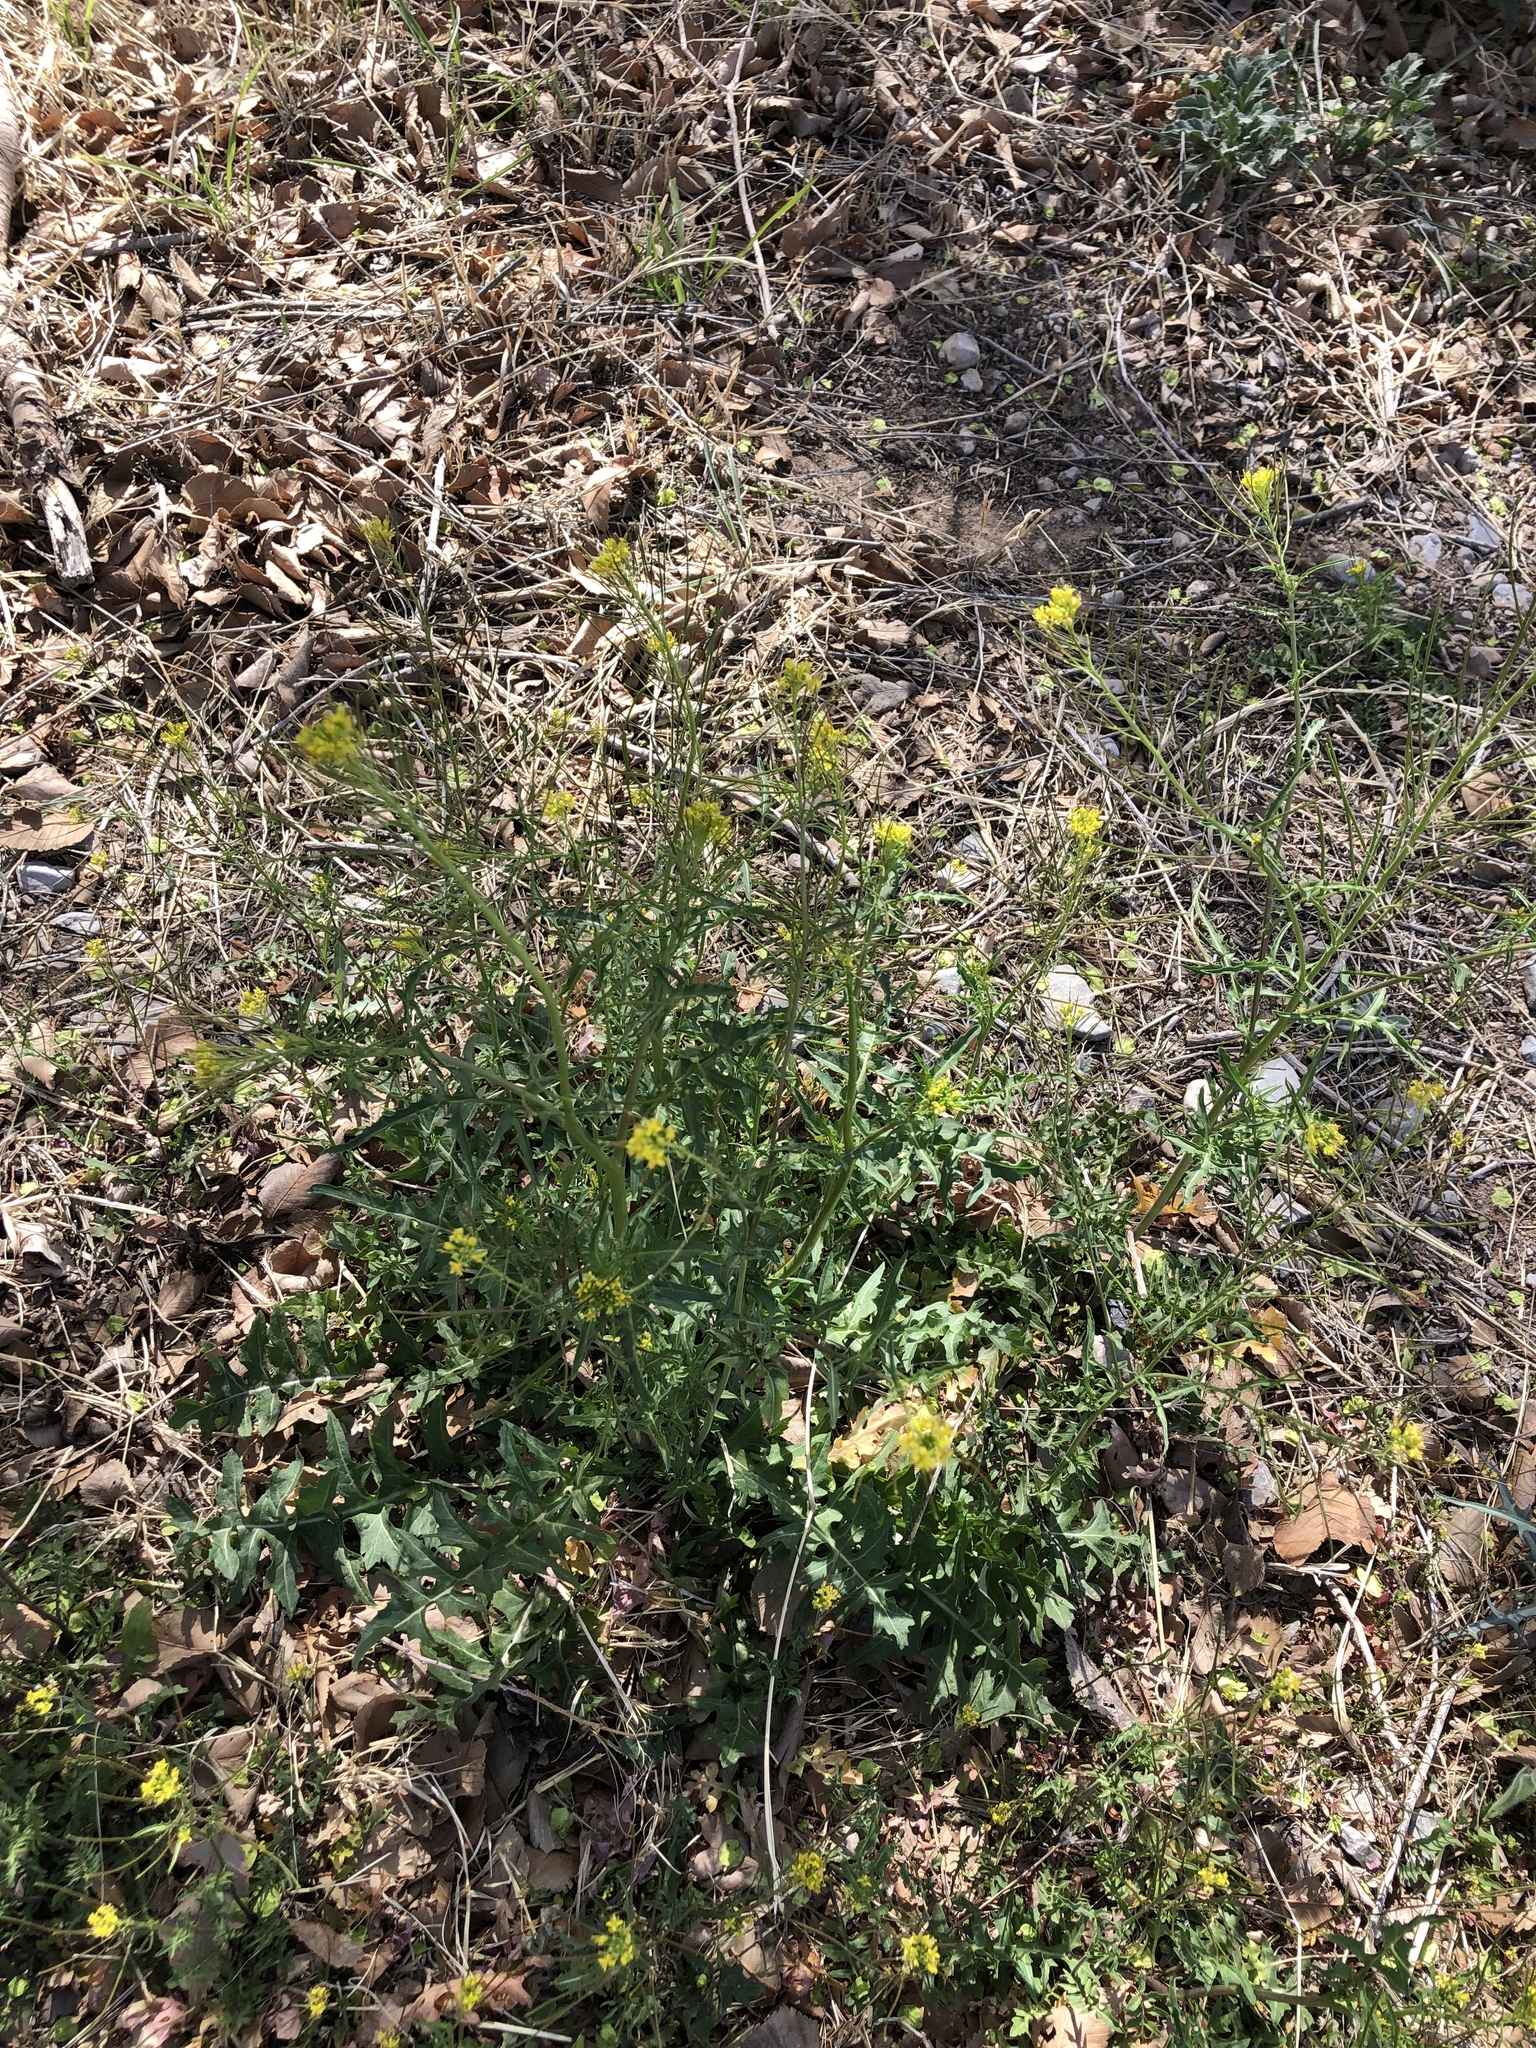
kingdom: Plantae
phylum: Tracheophyta
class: Magnoliopsida
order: Brassicales
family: Brassicaceae
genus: Sisymbrium
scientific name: Sisymbrium irio
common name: London rocket
